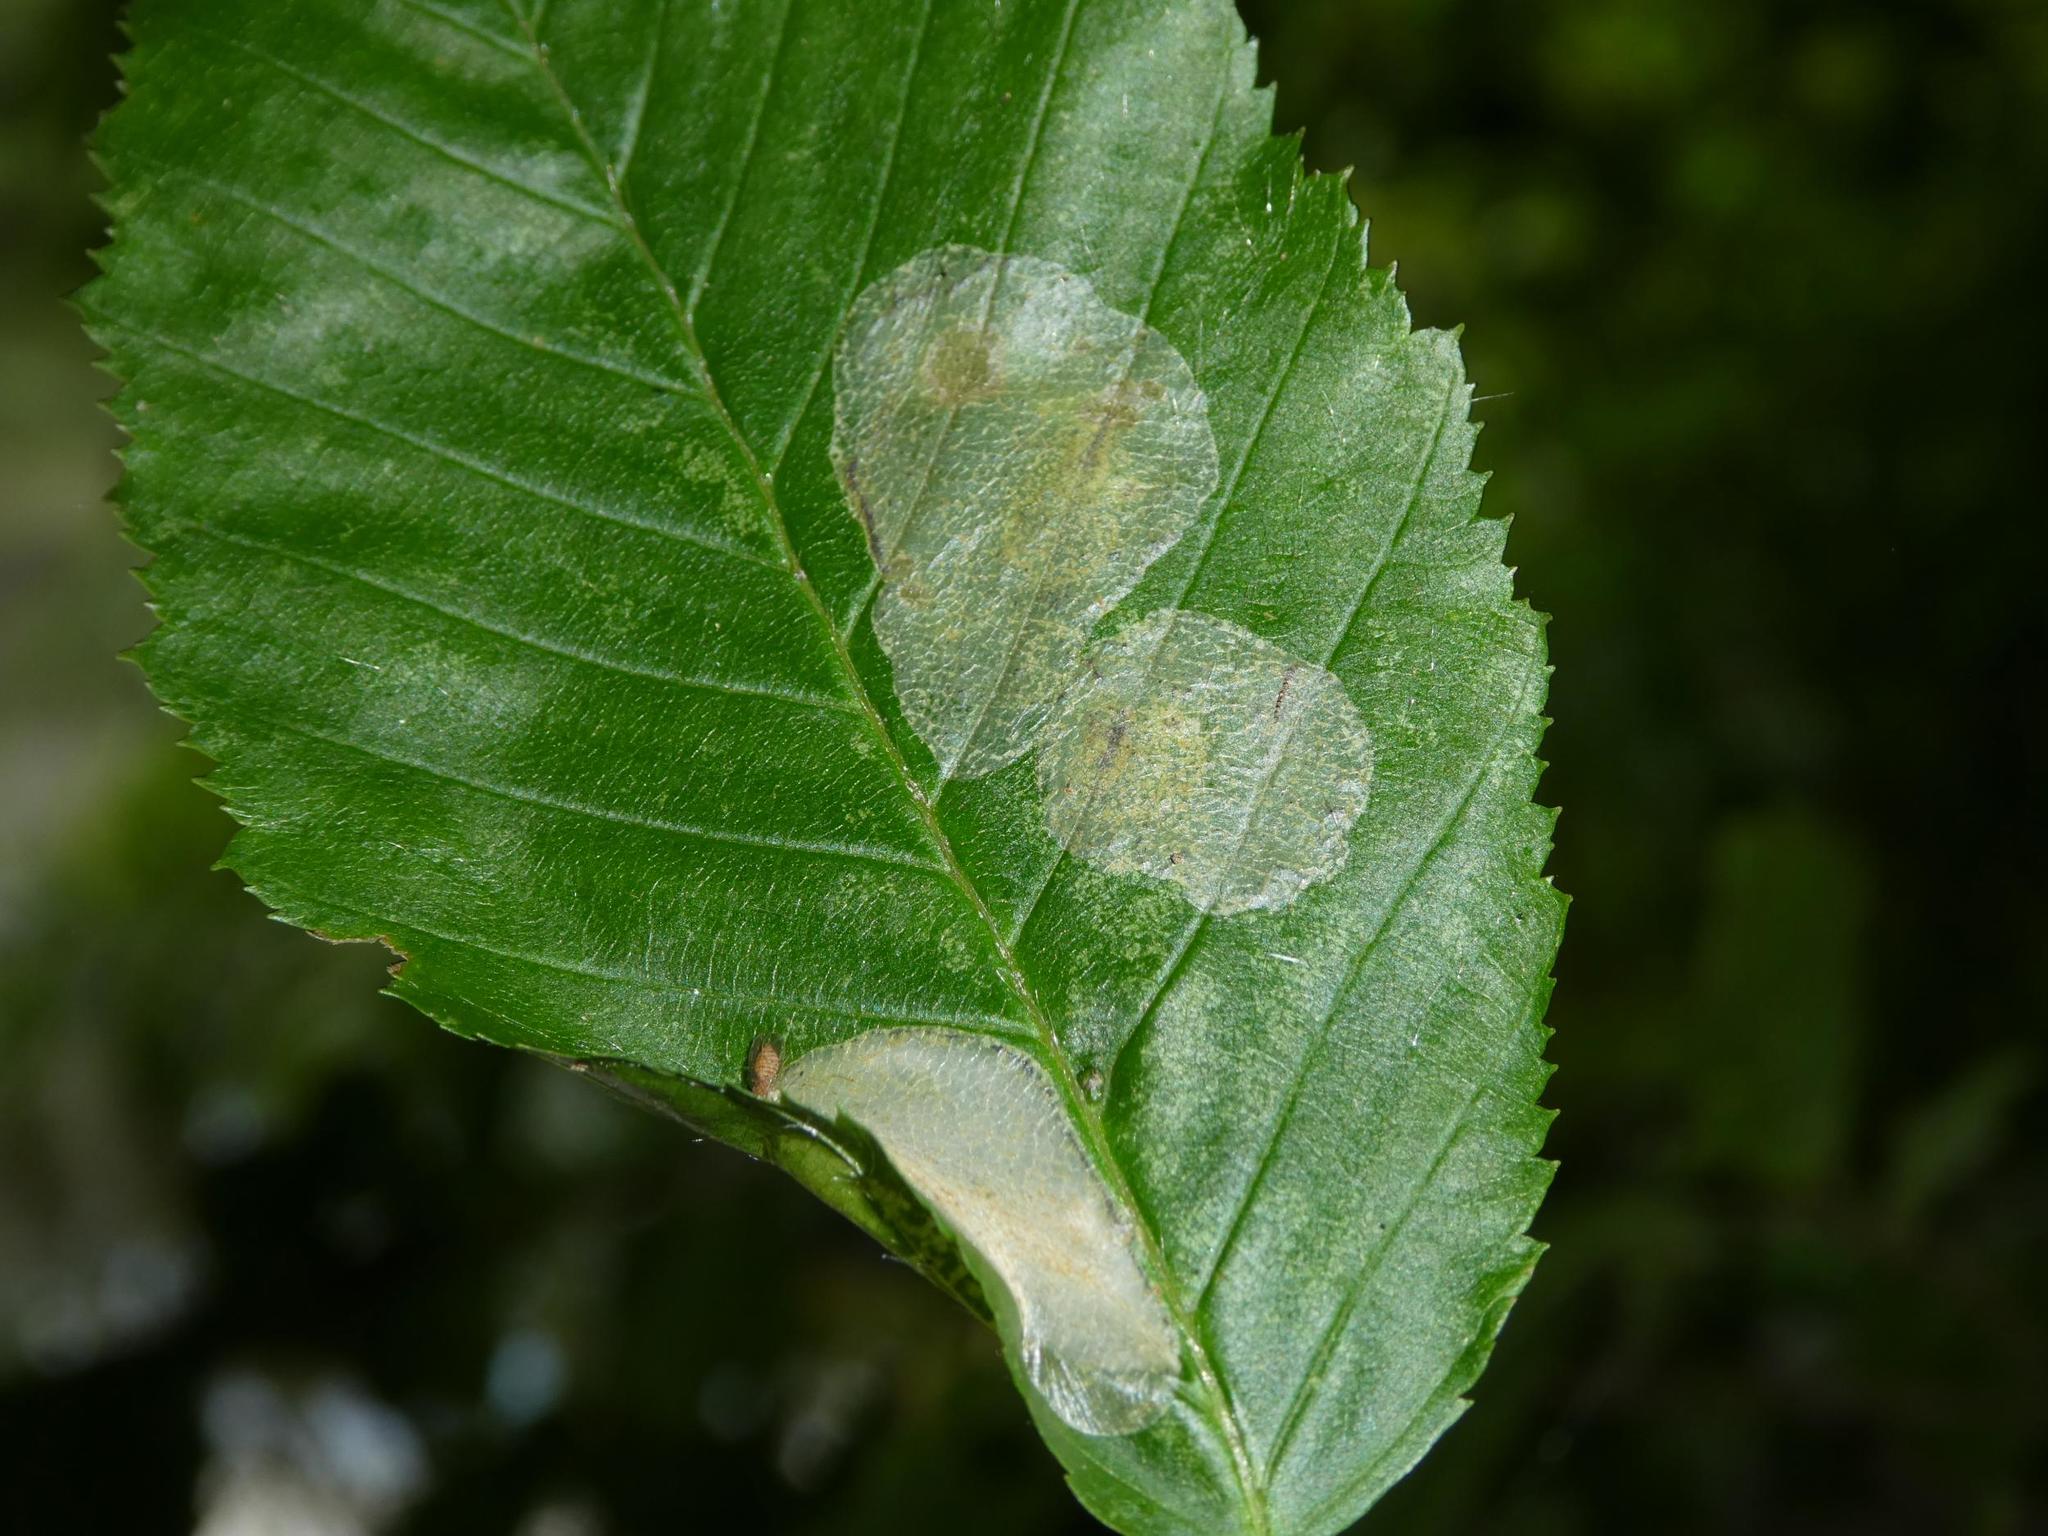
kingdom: Animalia
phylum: Arthropoda
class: Insecta
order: Lepidoptera
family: Gracillariidae
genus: Phyllonorycter
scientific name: Phyllonorycter esperella
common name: Dark hornbeam midget
